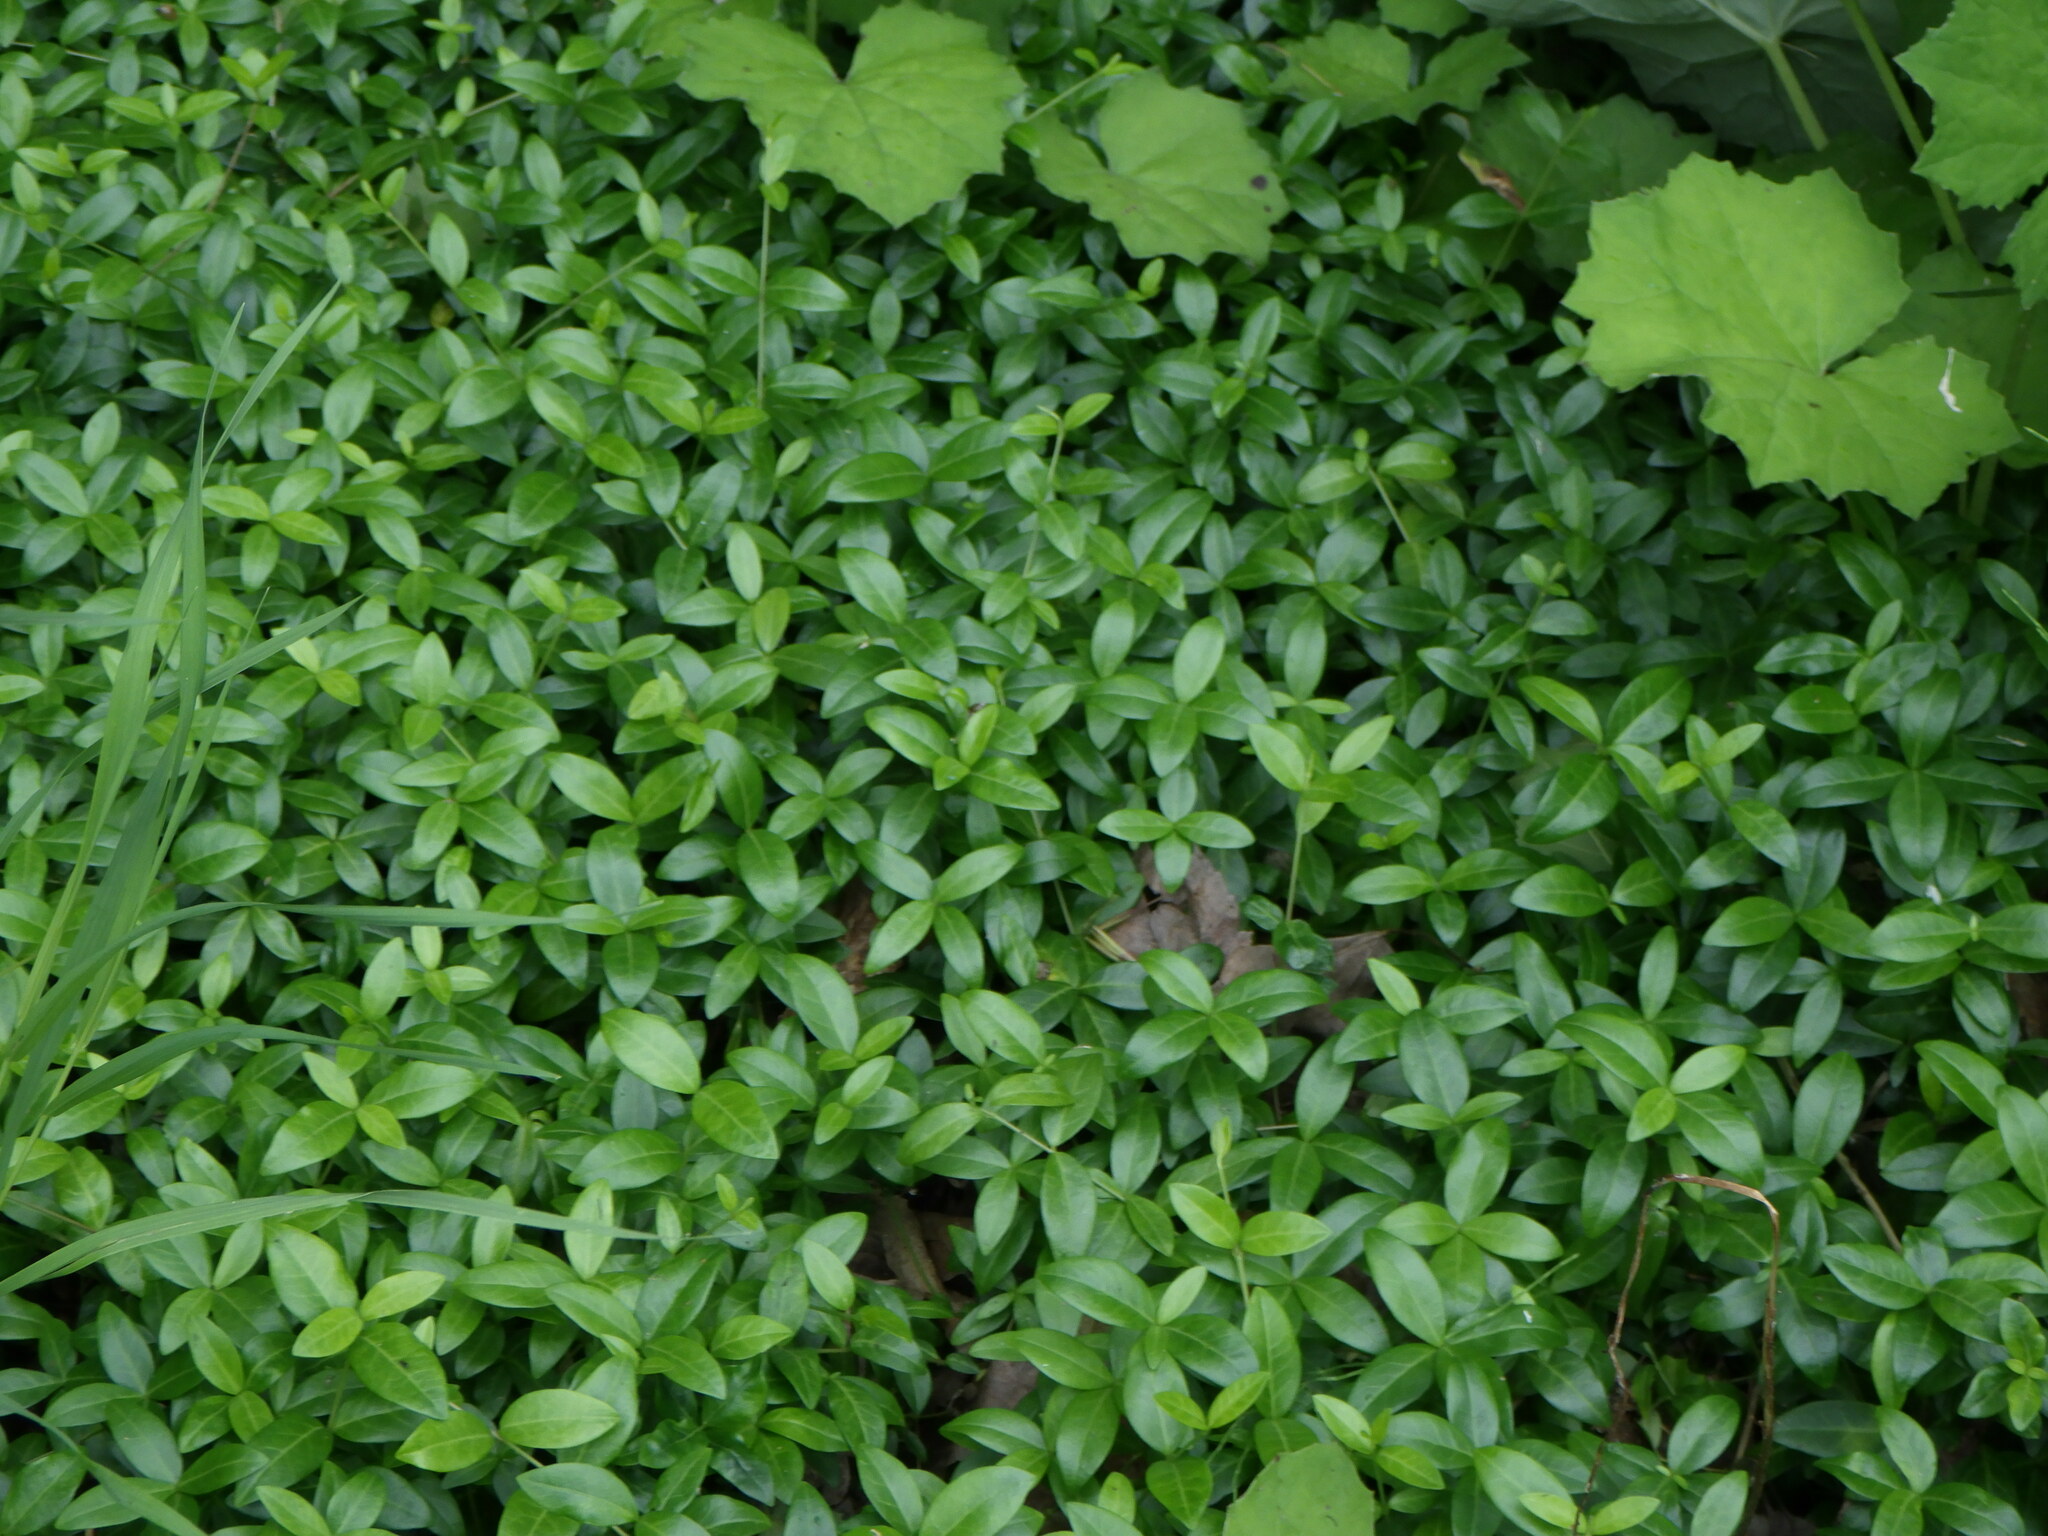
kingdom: Plantae
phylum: Tracheophyta
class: Magnoliopsida
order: Gentianales
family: Apocynaceae
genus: Vinca
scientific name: Vinca minor
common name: Lesser periwinkle
